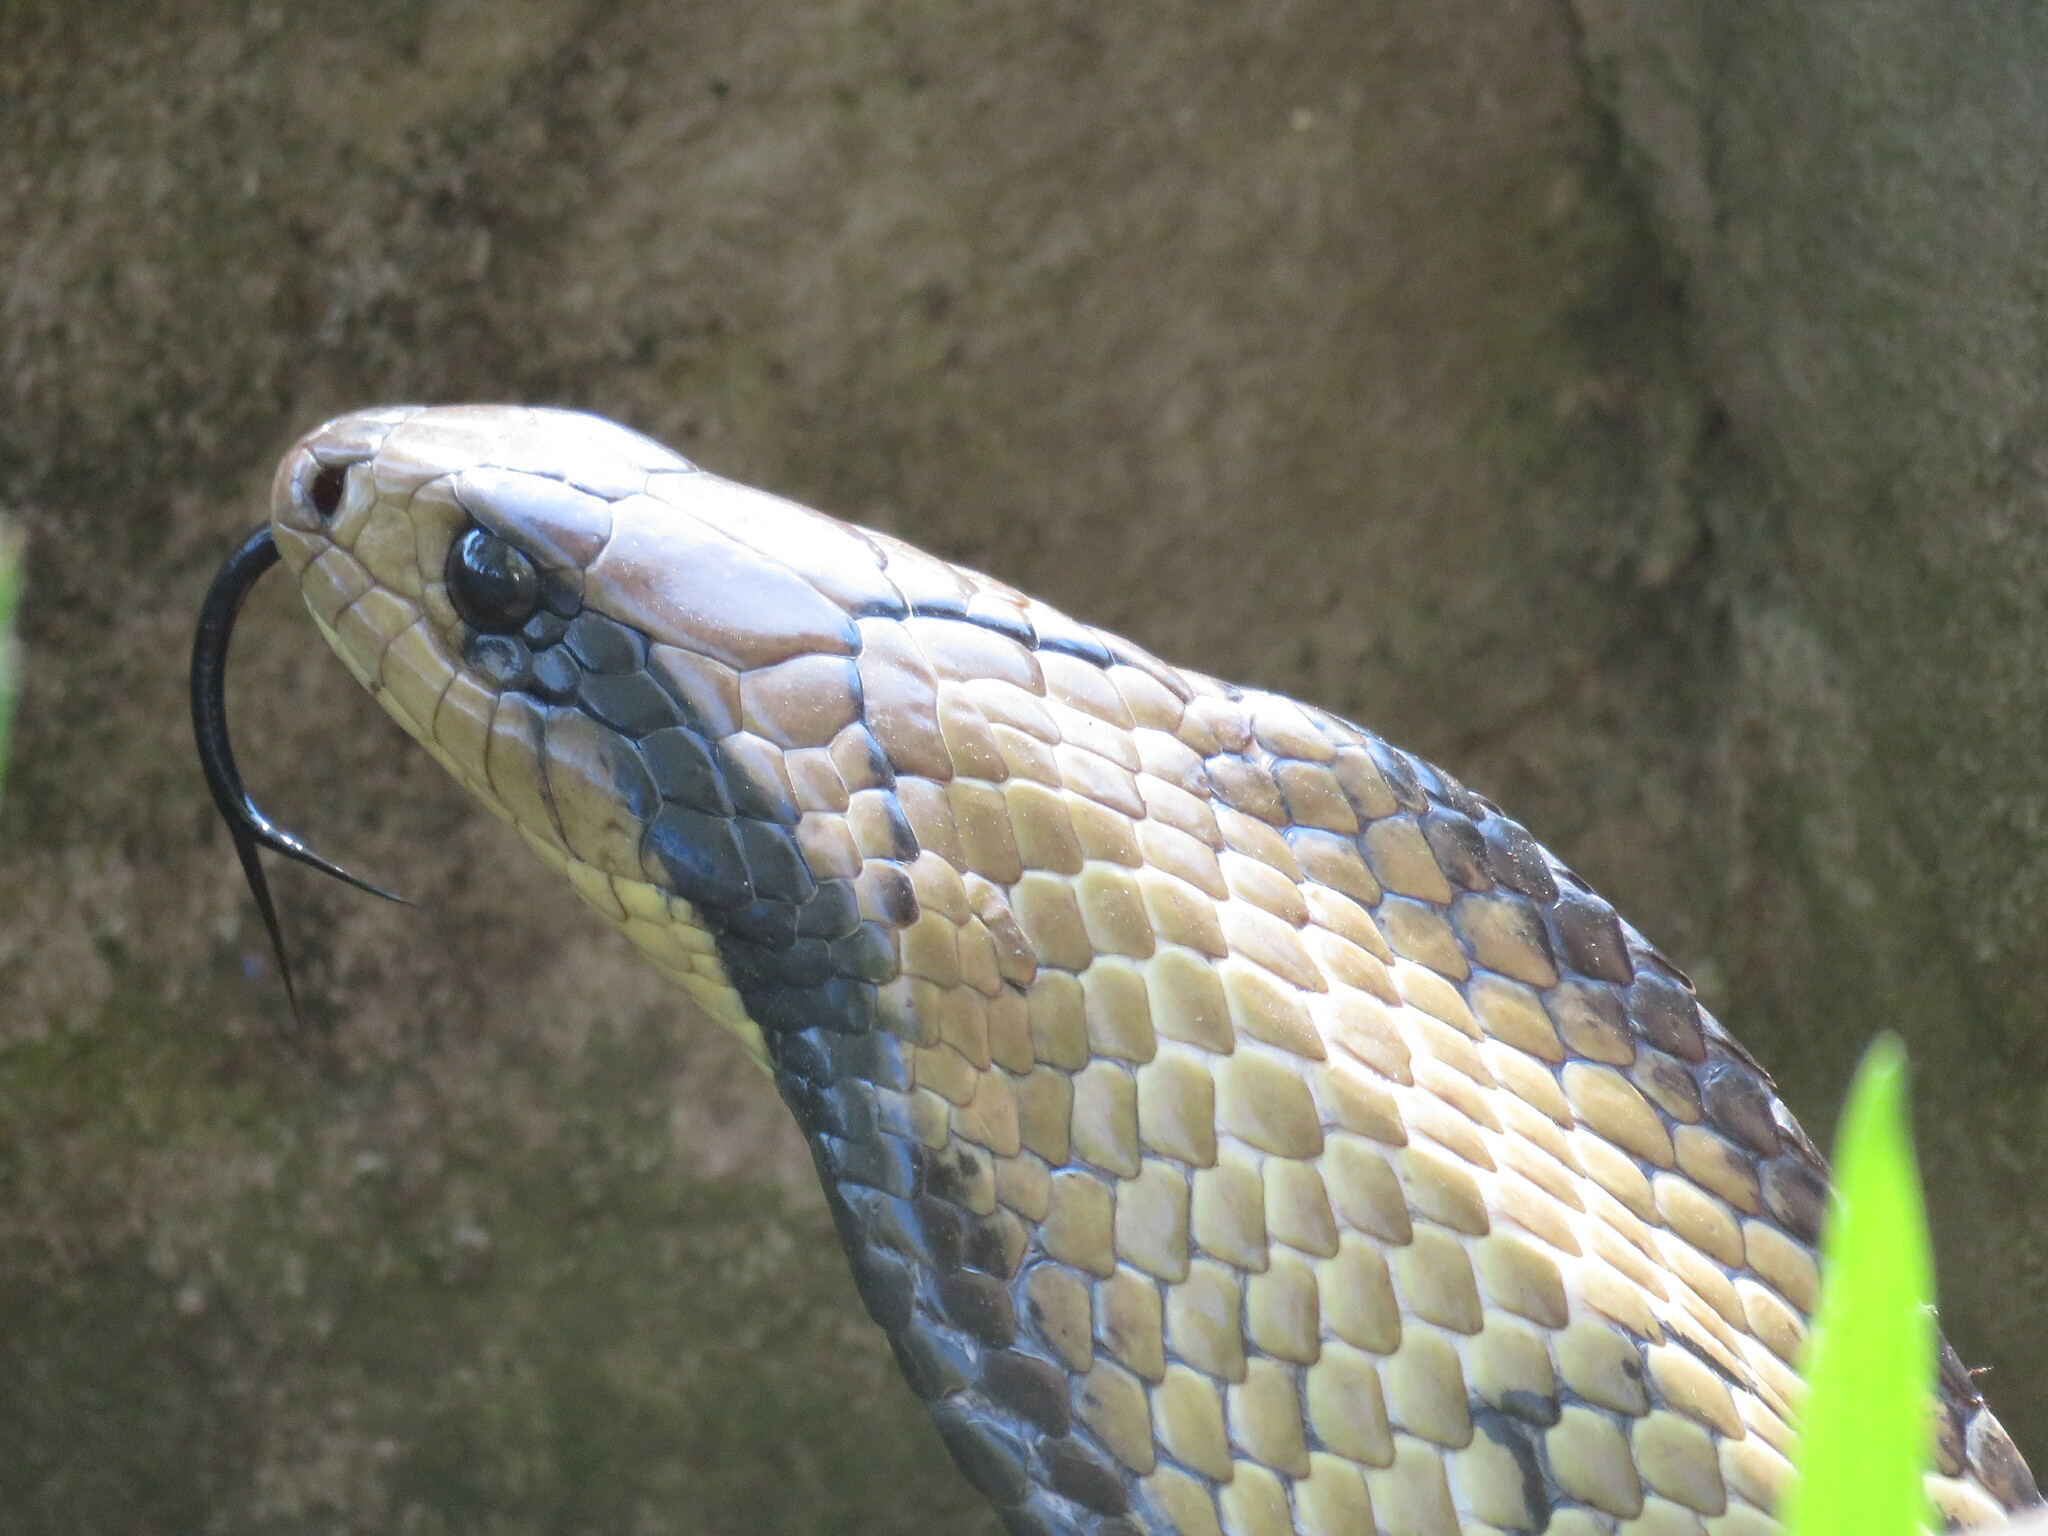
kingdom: Animalia
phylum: Chordata
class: Squamata
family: Colubridae
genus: Hydrodynastes
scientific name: Hydrodynastes gigas
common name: False water cobra
